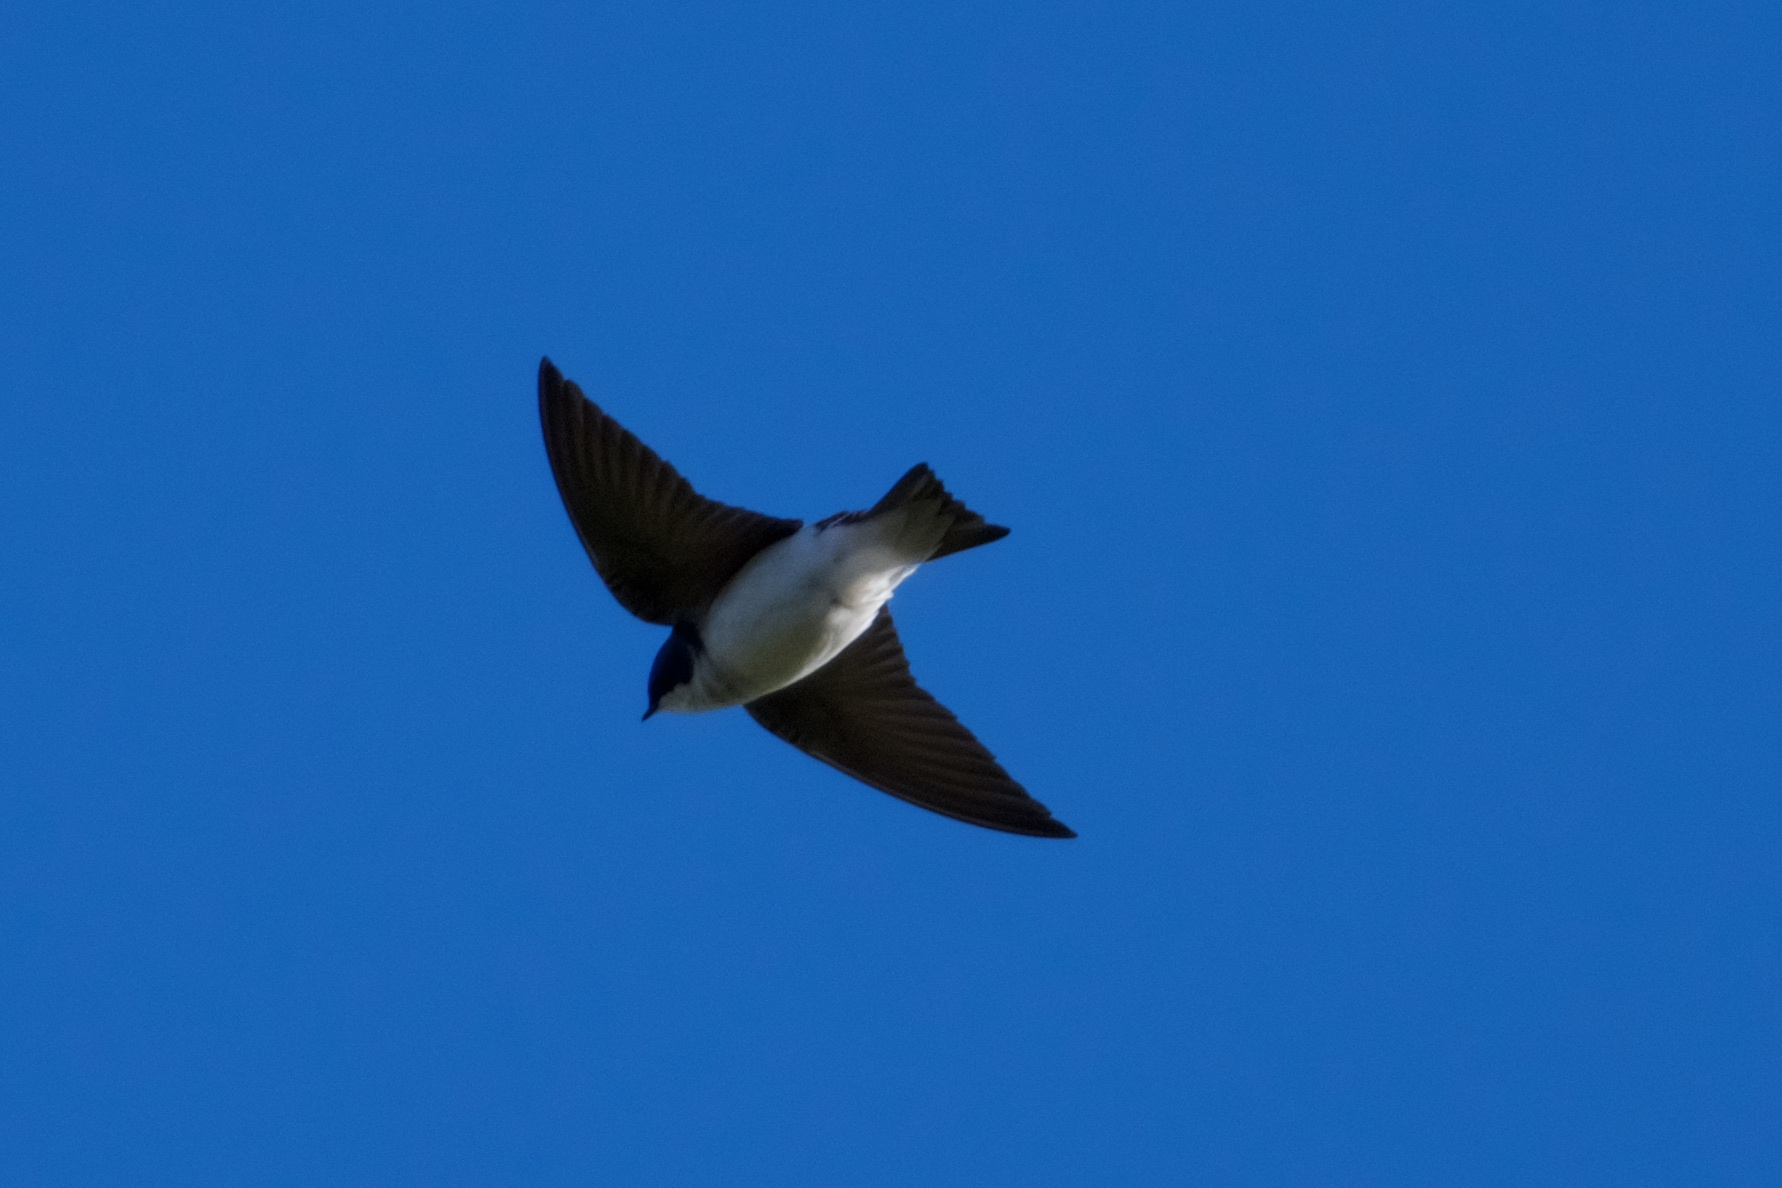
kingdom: Animalia
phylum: Chordata
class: Aves
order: Passeriformes
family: Hirundinidae
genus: Tachycineta
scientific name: Tachycineta bicolor
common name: Tree swallow
